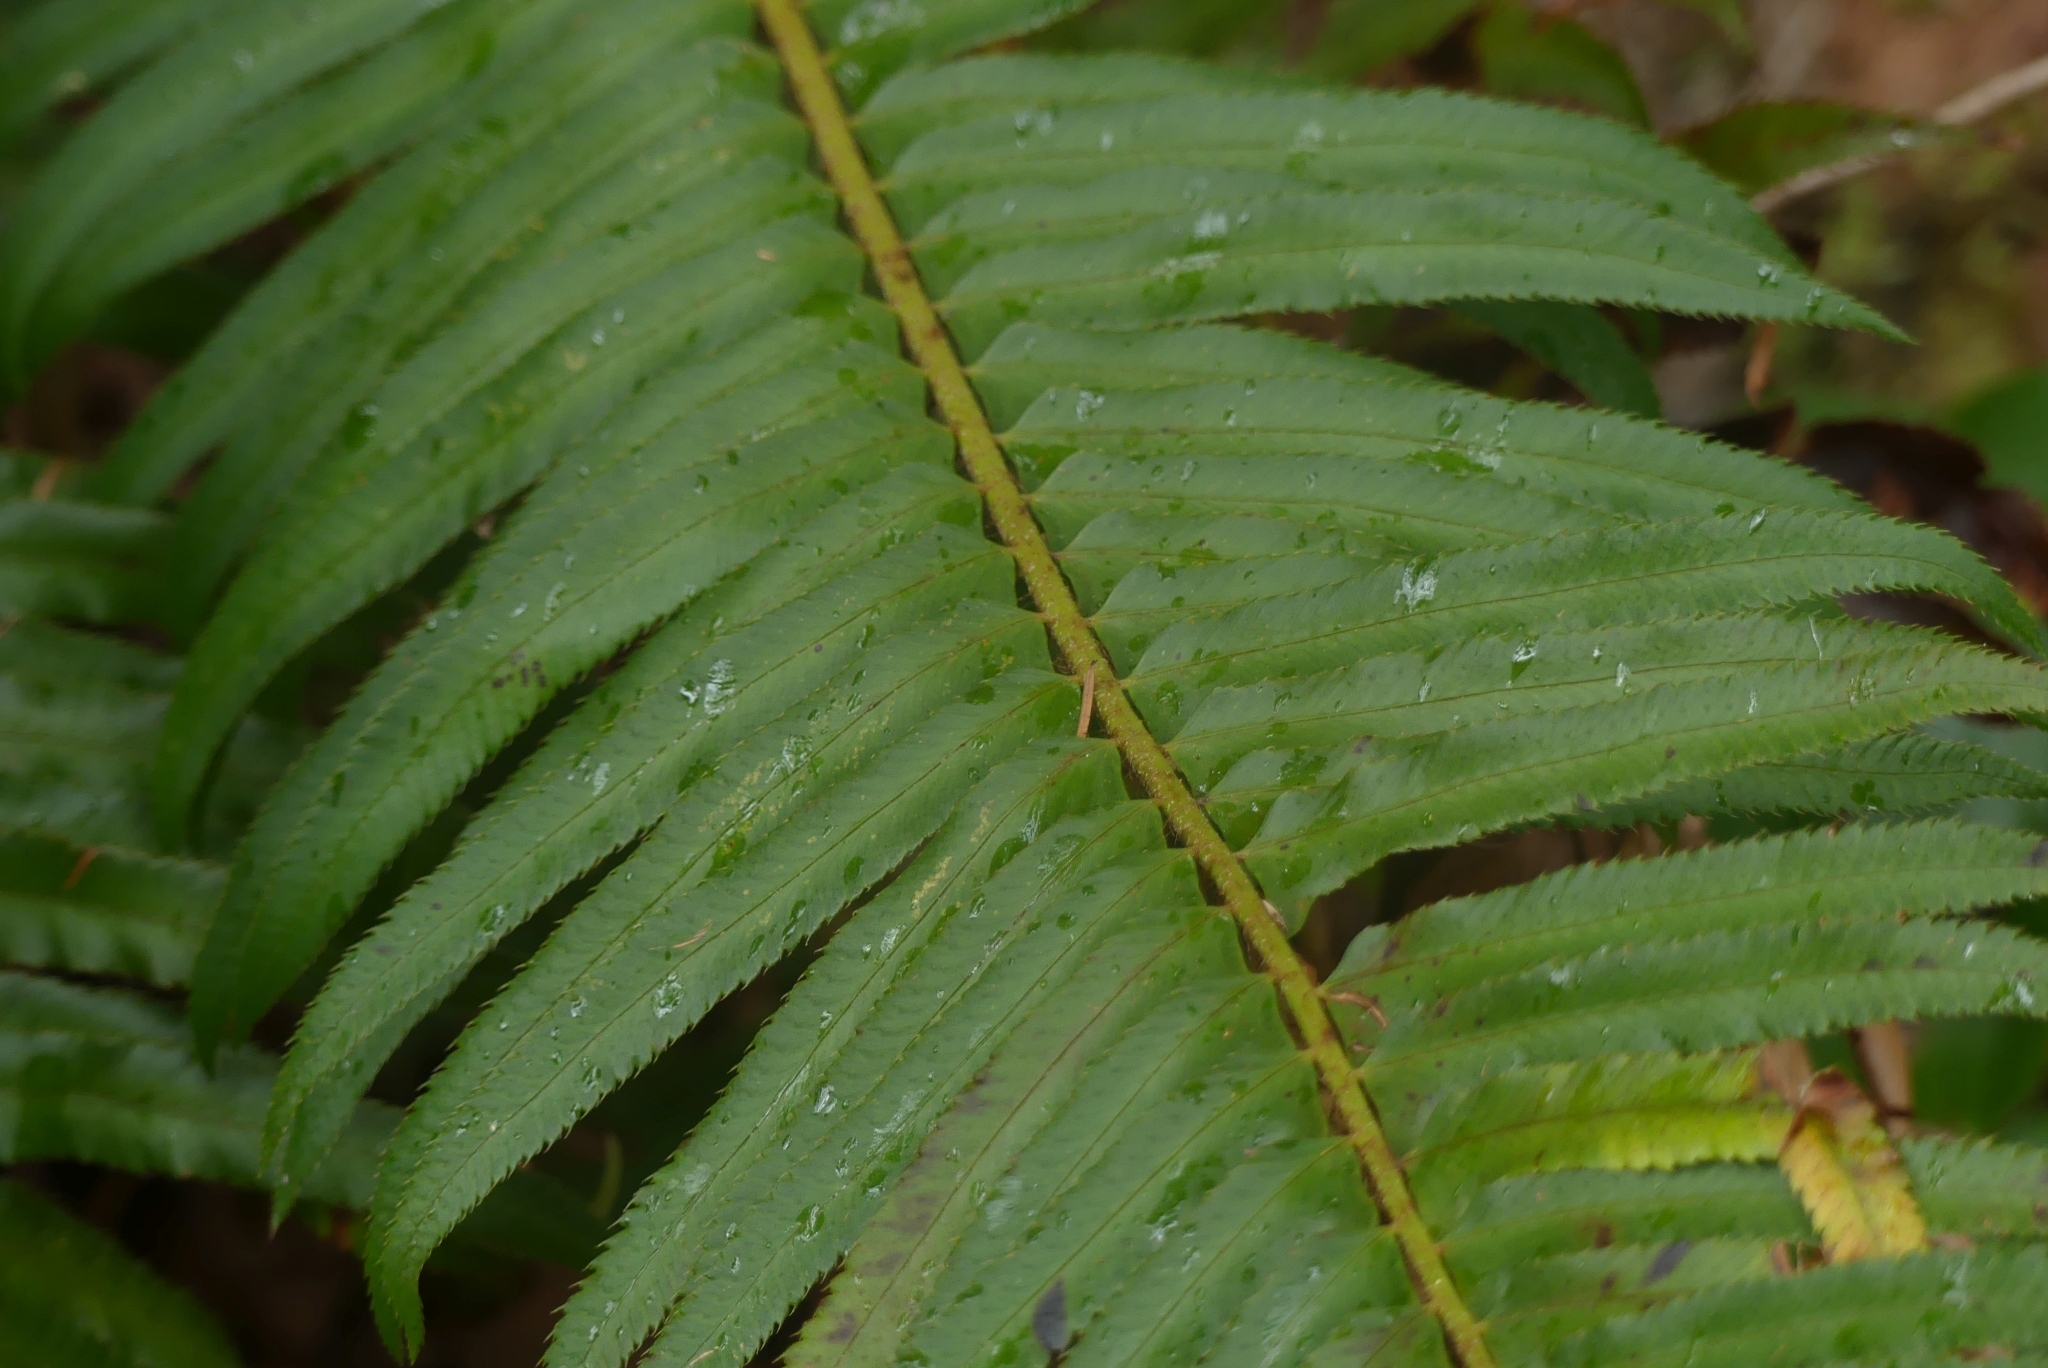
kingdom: Plantae
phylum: Tracheophyta
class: Polypodiopsida
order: Polypodiales
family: Dryopteridaceae
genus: Polystichum
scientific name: Polystichum munitum
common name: Western sword-fern
